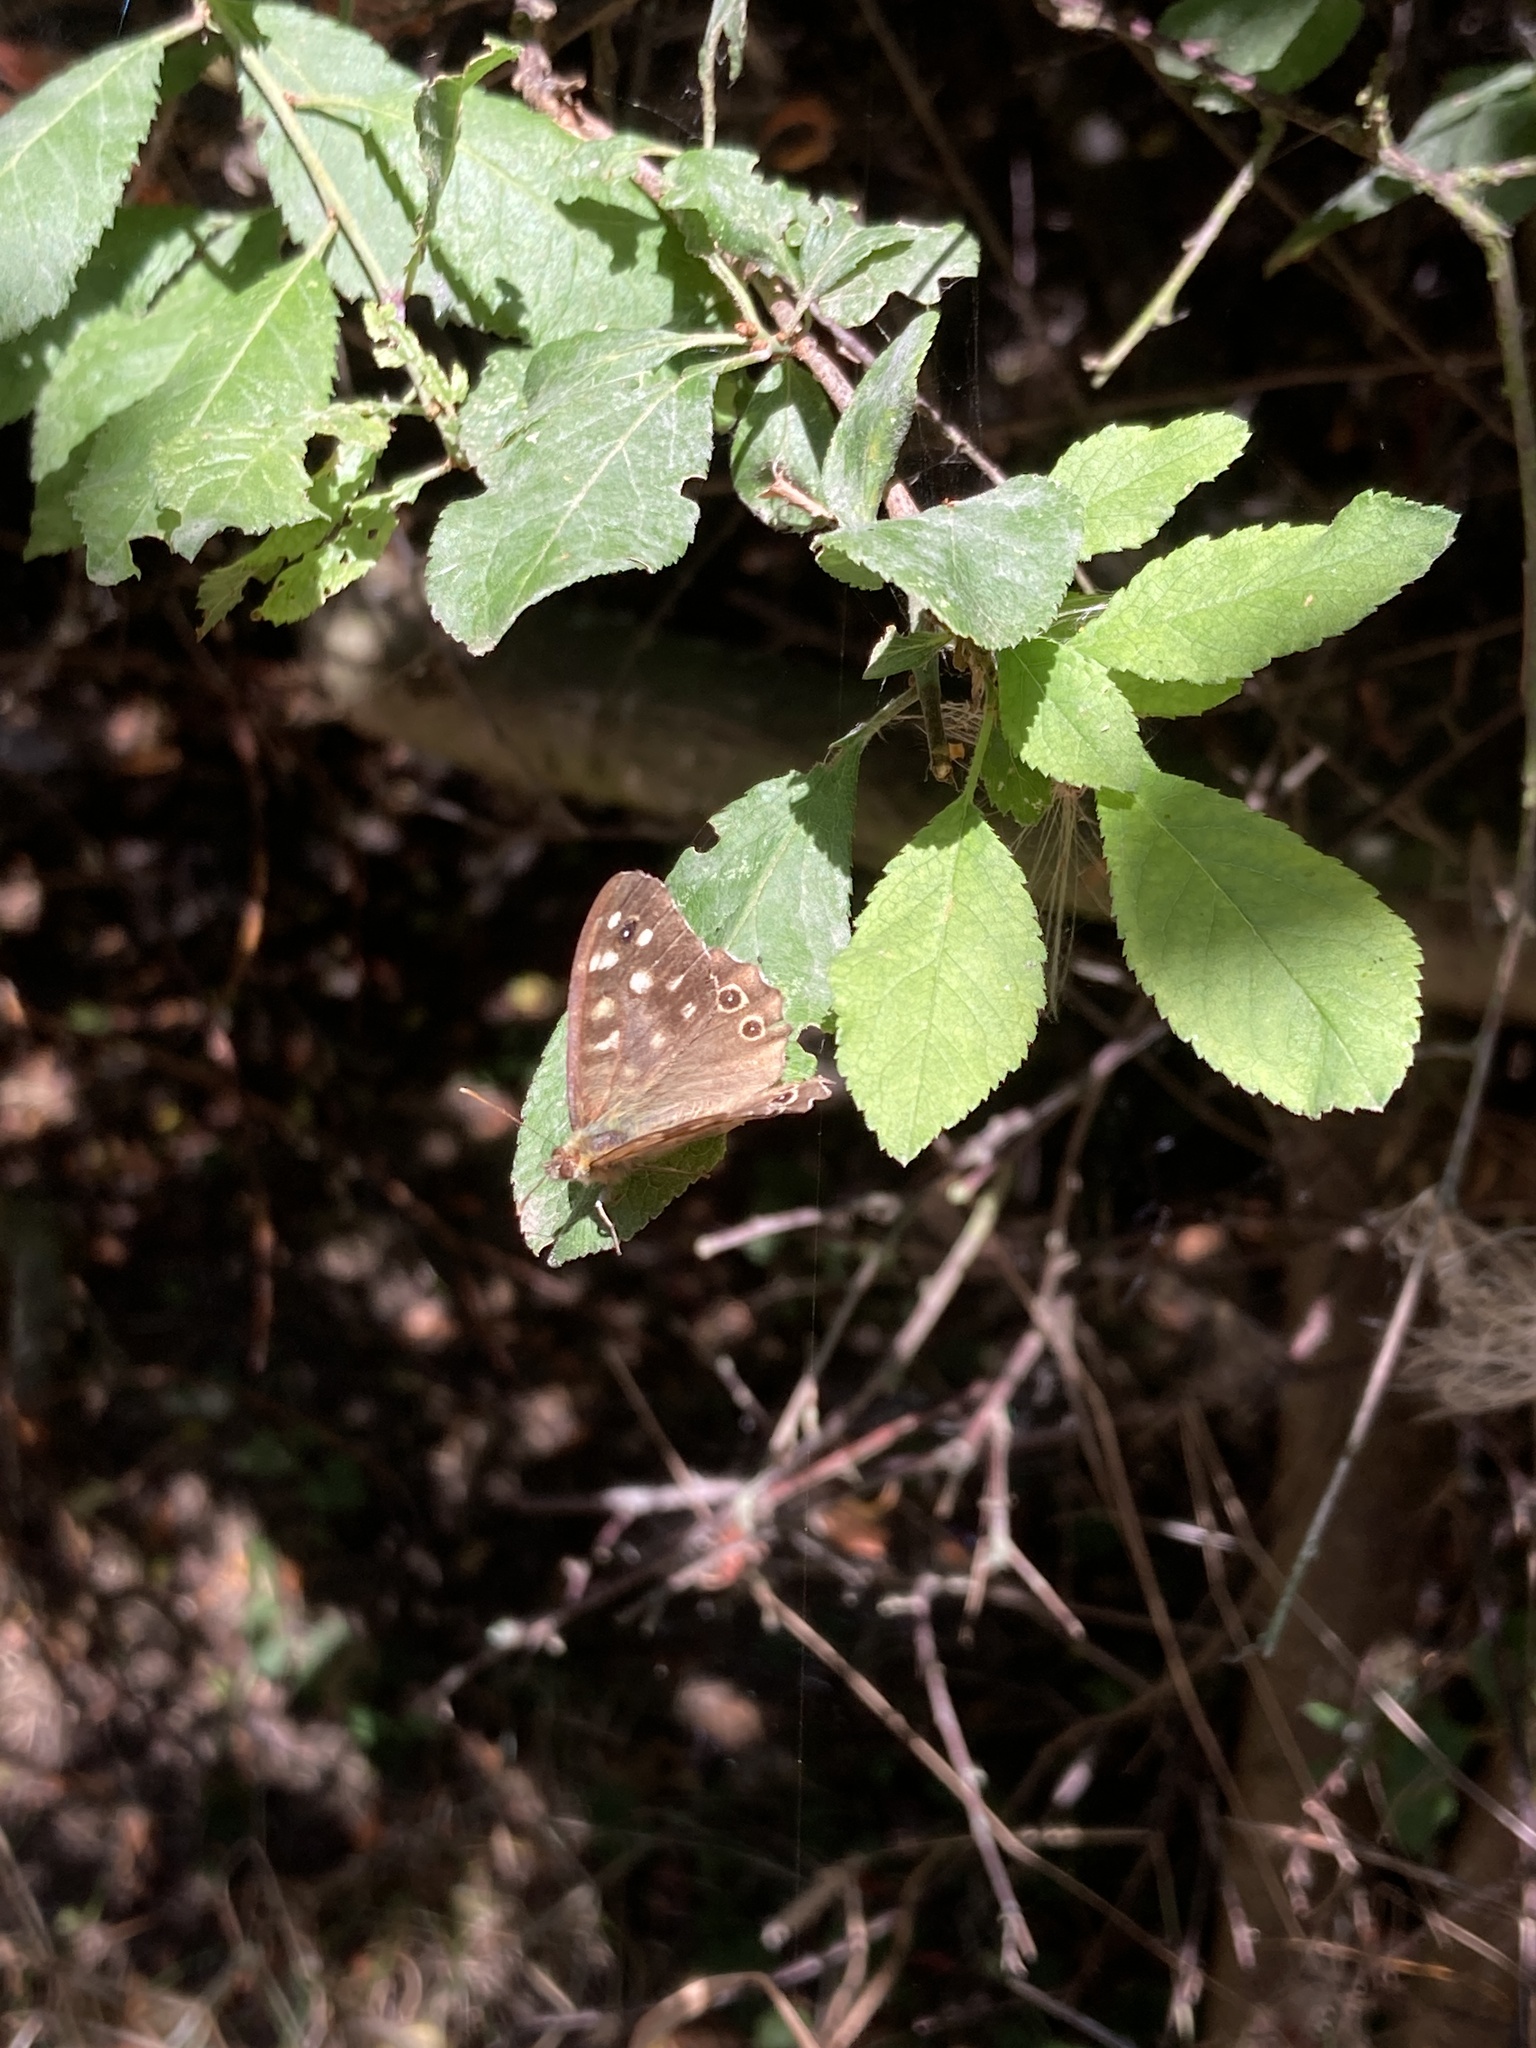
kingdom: Animalia
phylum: Arthropoda
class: Insecta
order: Lepidoptera
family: Nymphalidae
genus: Pararge
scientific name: Pararge aegeria
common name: Speckled wood
